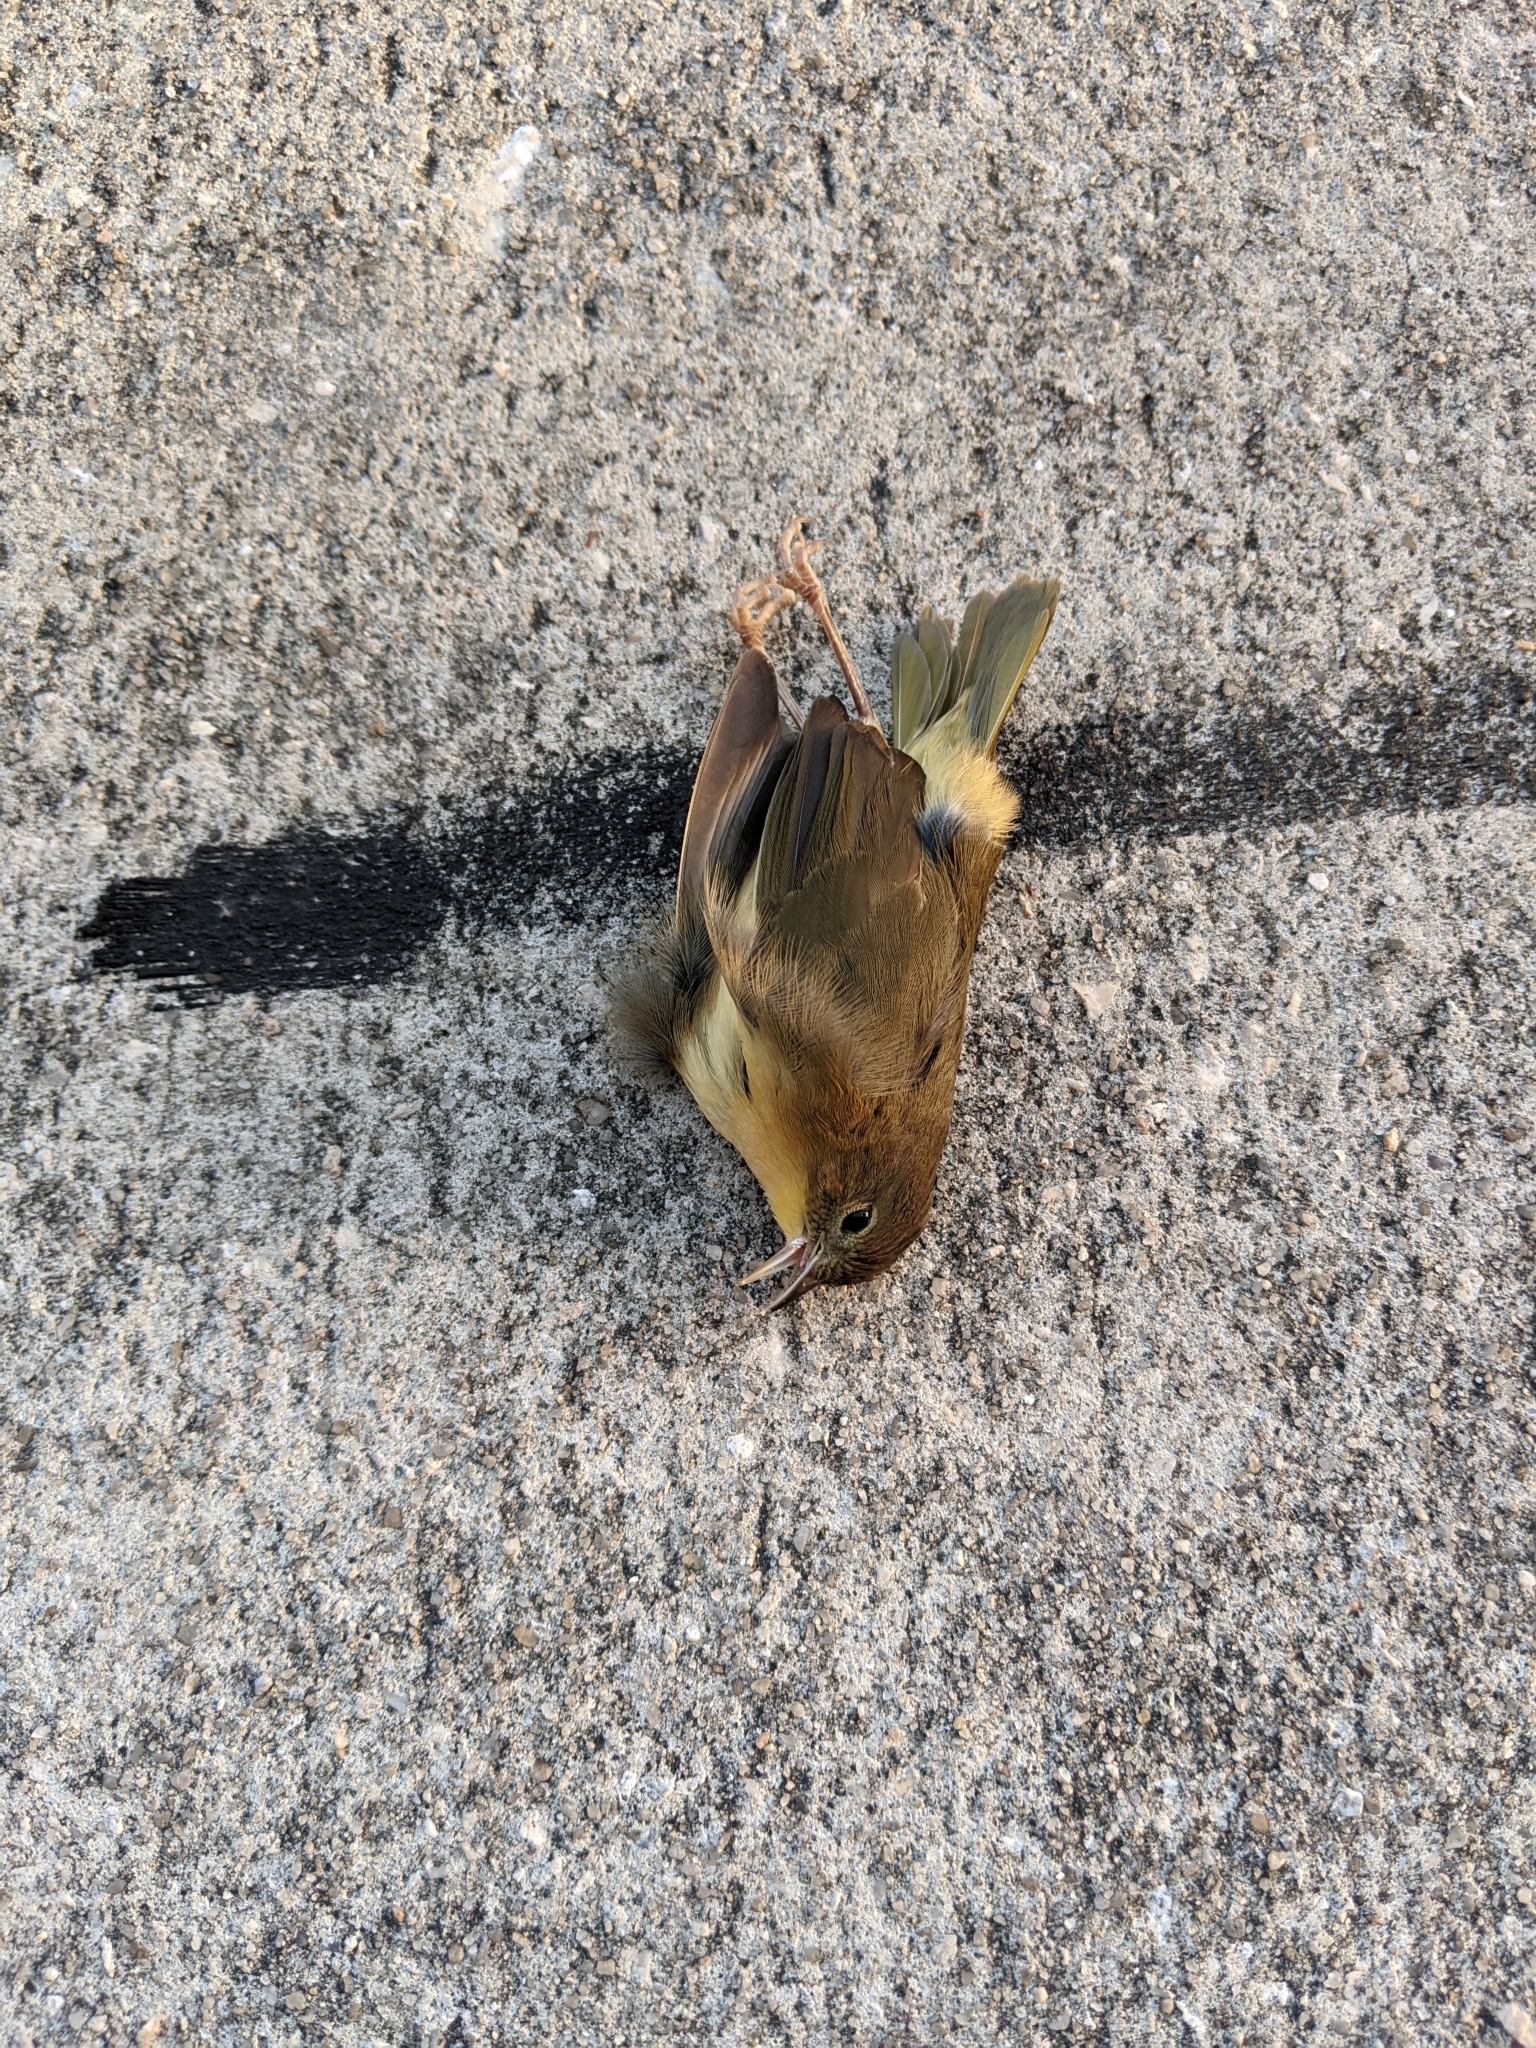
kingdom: Animalia
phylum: Chordata
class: Aves
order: Passeriformes
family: Parulidae
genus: Geothlypis
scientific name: Geothlypis trichas
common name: Common yellowthroat
